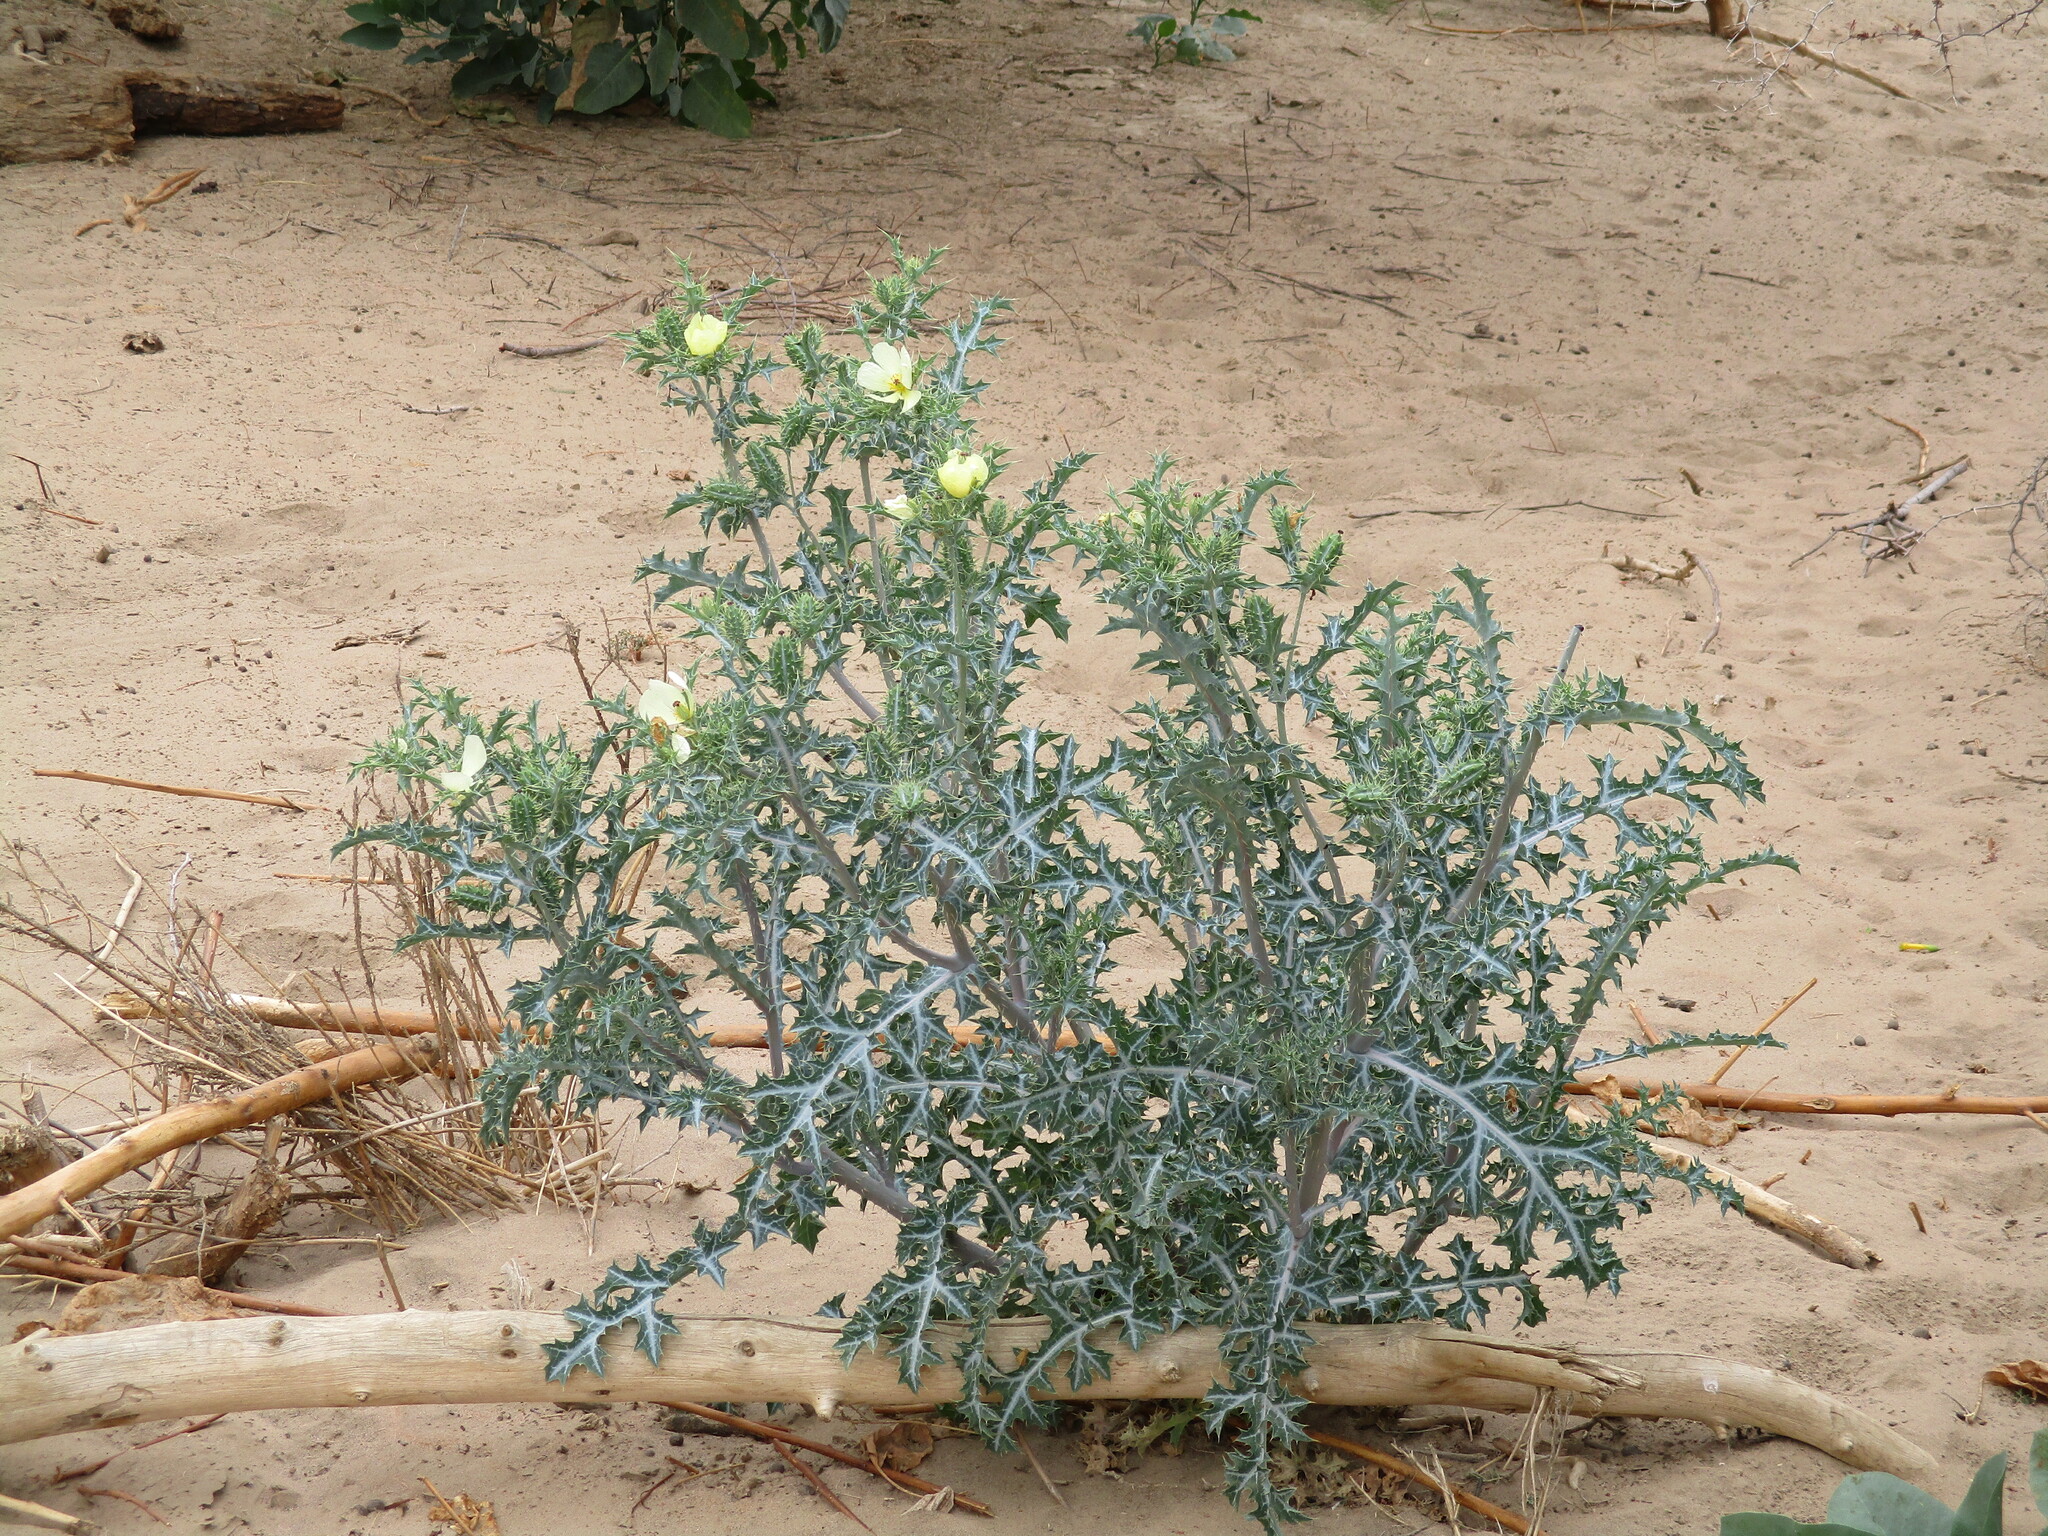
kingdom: Plantae
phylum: Tracheophyta
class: Magnoliopsida
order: Ranunculales
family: Papaveraceae
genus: Argemone
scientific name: Argemone ochroleuca
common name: White-flower mexican-poppy
